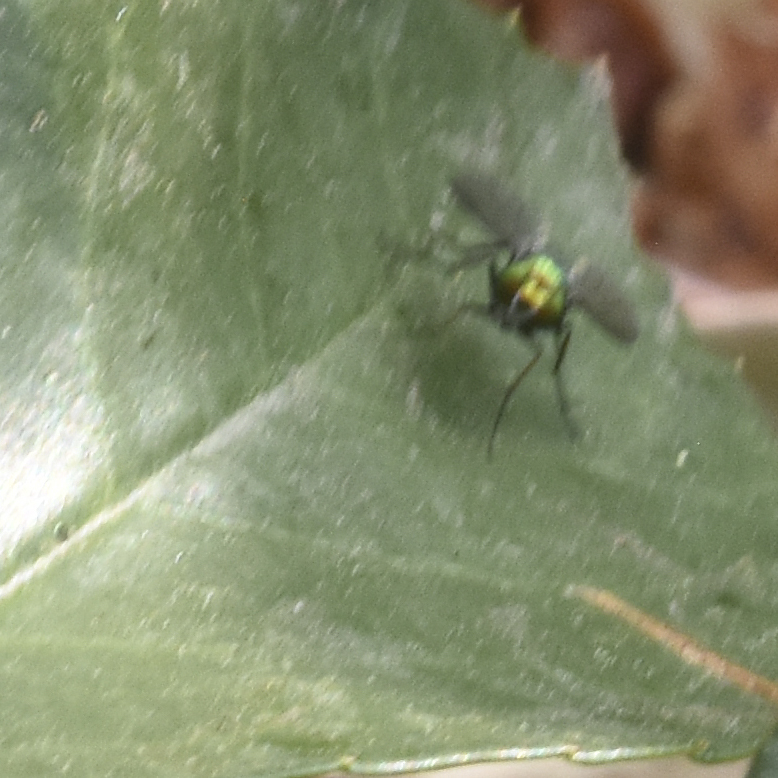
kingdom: Animalia
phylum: Arthropoda
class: Insecta
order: Diptera
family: Dolichopodidae
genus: Condylostylus
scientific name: Condylostylus longicornis
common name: Long-legged fly
